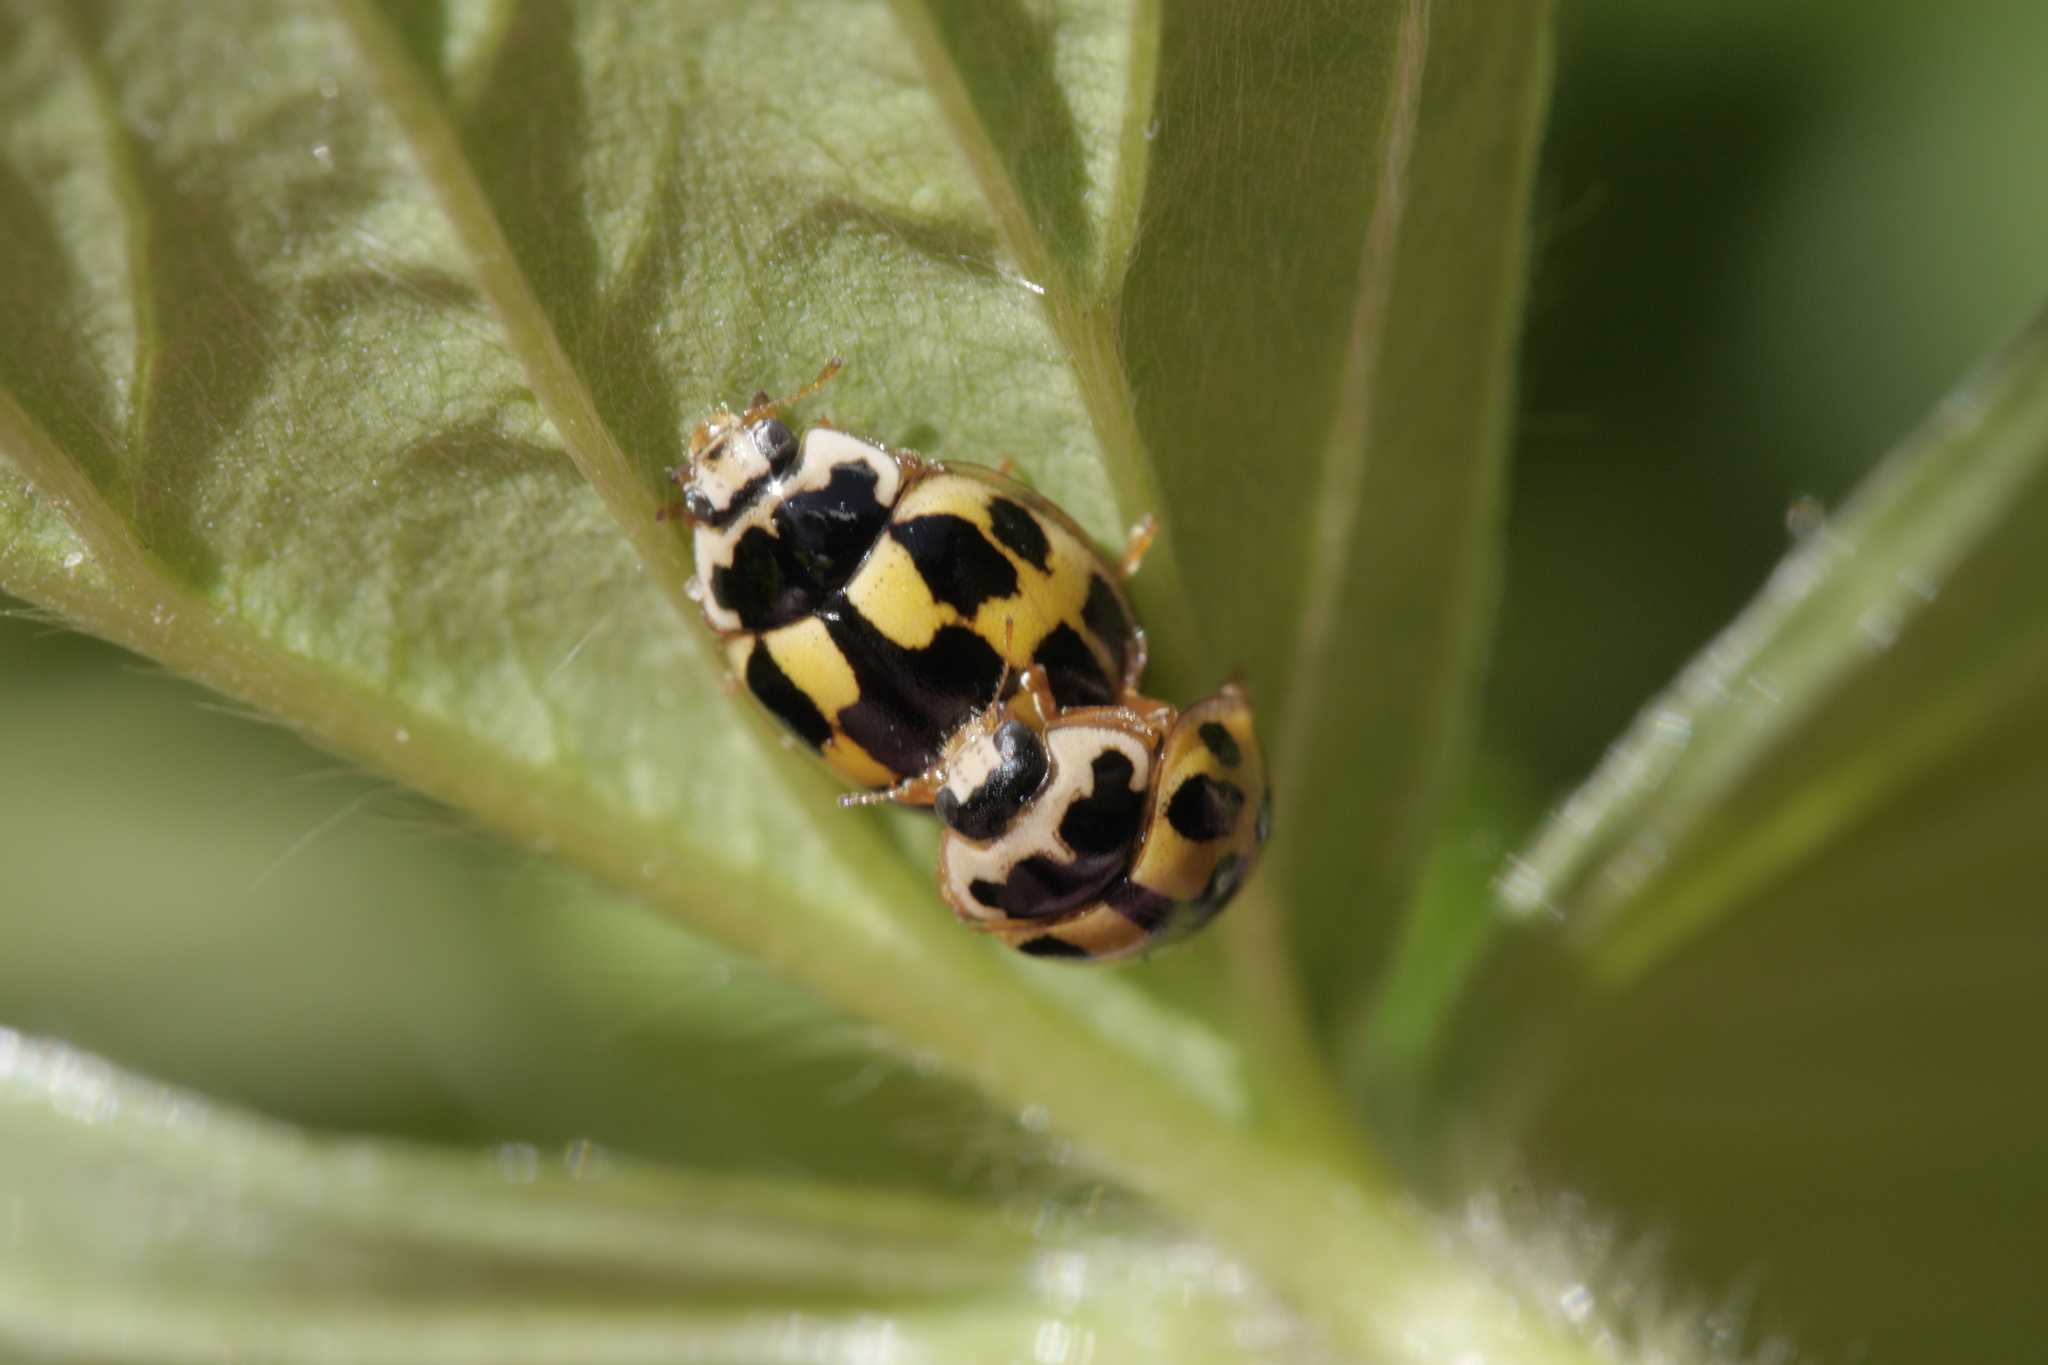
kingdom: Animalia
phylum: Arthropoda
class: Insecta
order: Coleoptera
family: Coccinellidae
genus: Propylaea
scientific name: Propylaea quatuordecimpunctata
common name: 14-spotted ladybird beetle
